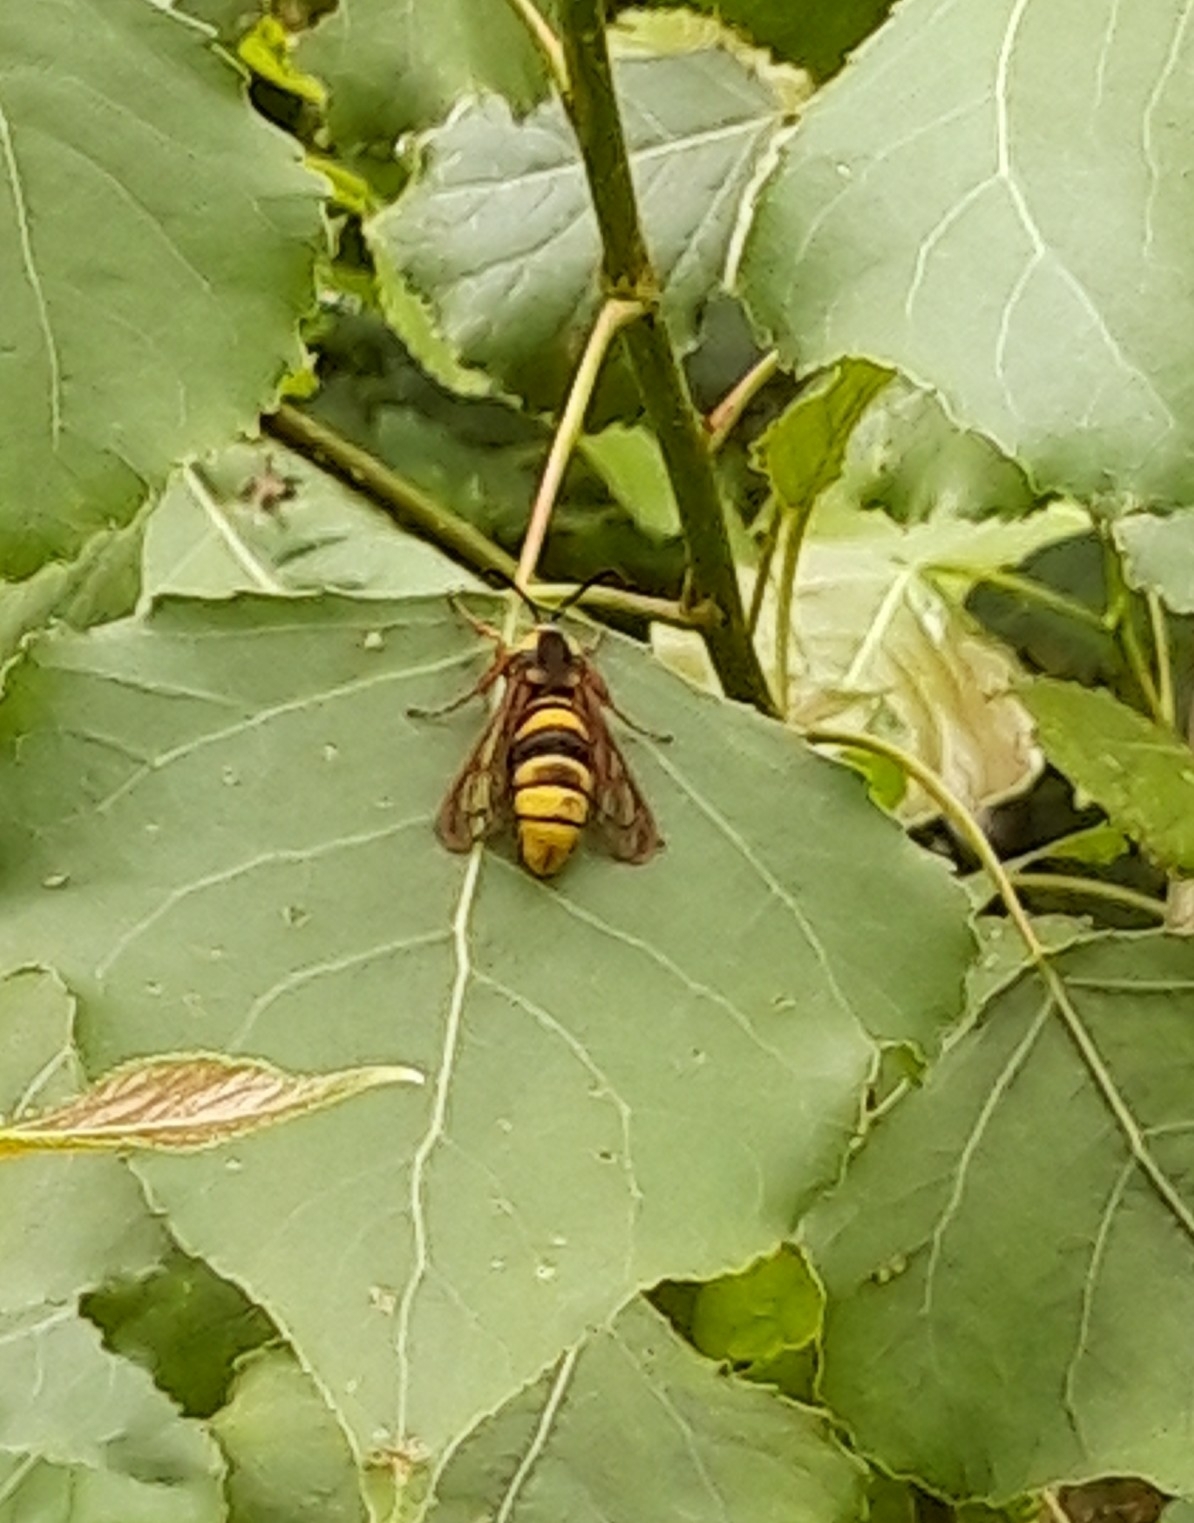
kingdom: Animalia
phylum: Arthropoda
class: Insecta
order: Lepidoptera
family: Sesiidae
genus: Sesia
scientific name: Sesia apiformis
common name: Hornet moth
